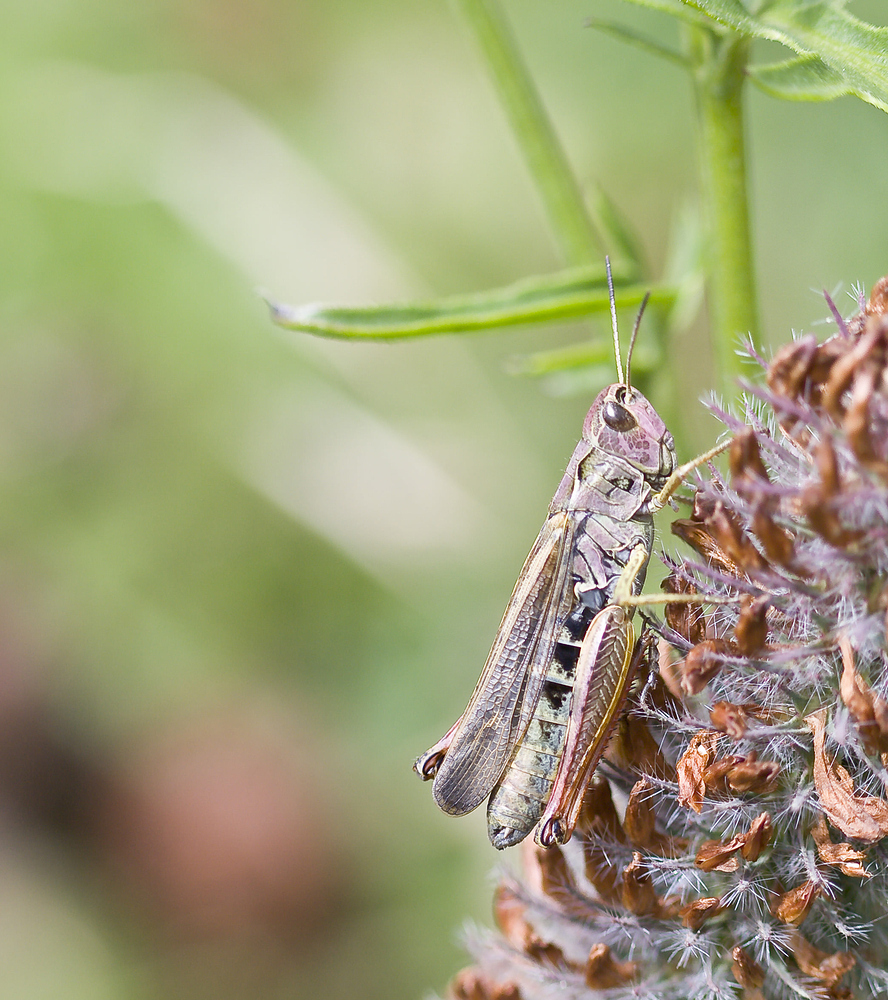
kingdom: Animalia
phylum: Arthropoda
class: Insecta
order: Orthoptera
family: Acrididae
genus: Stauroderus
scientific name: Stauroderus scalaris
